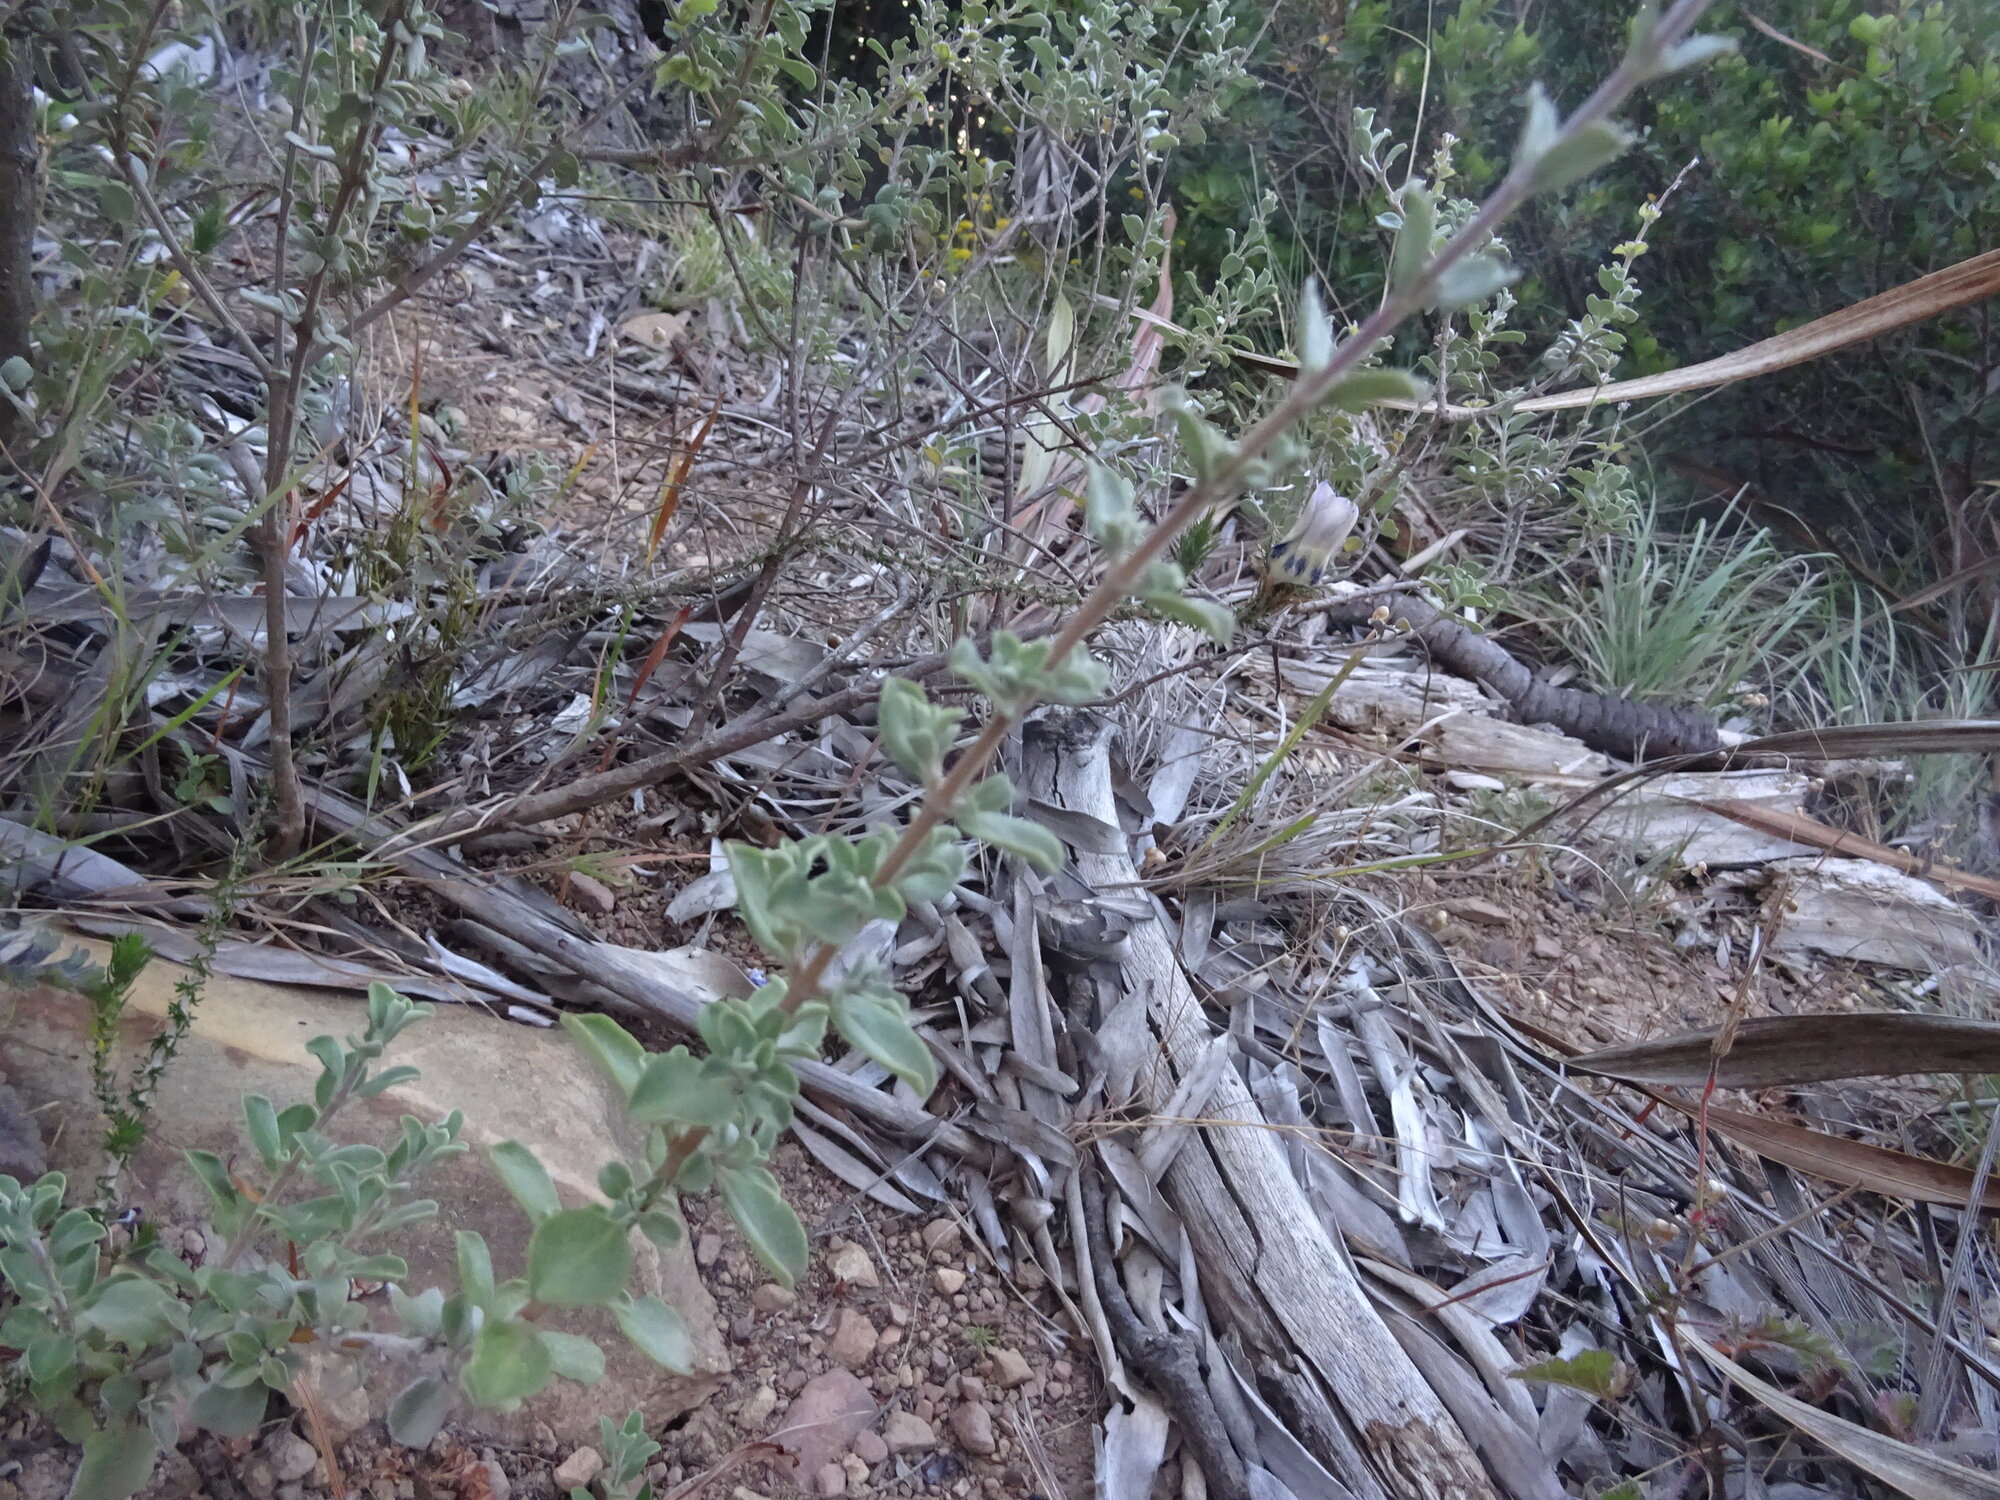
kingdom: Plantae
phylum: Tracheophyta
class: Magnoliopsida
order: Lamiales
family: Lamiaceae
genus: Salvia
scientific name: Salvia africana
